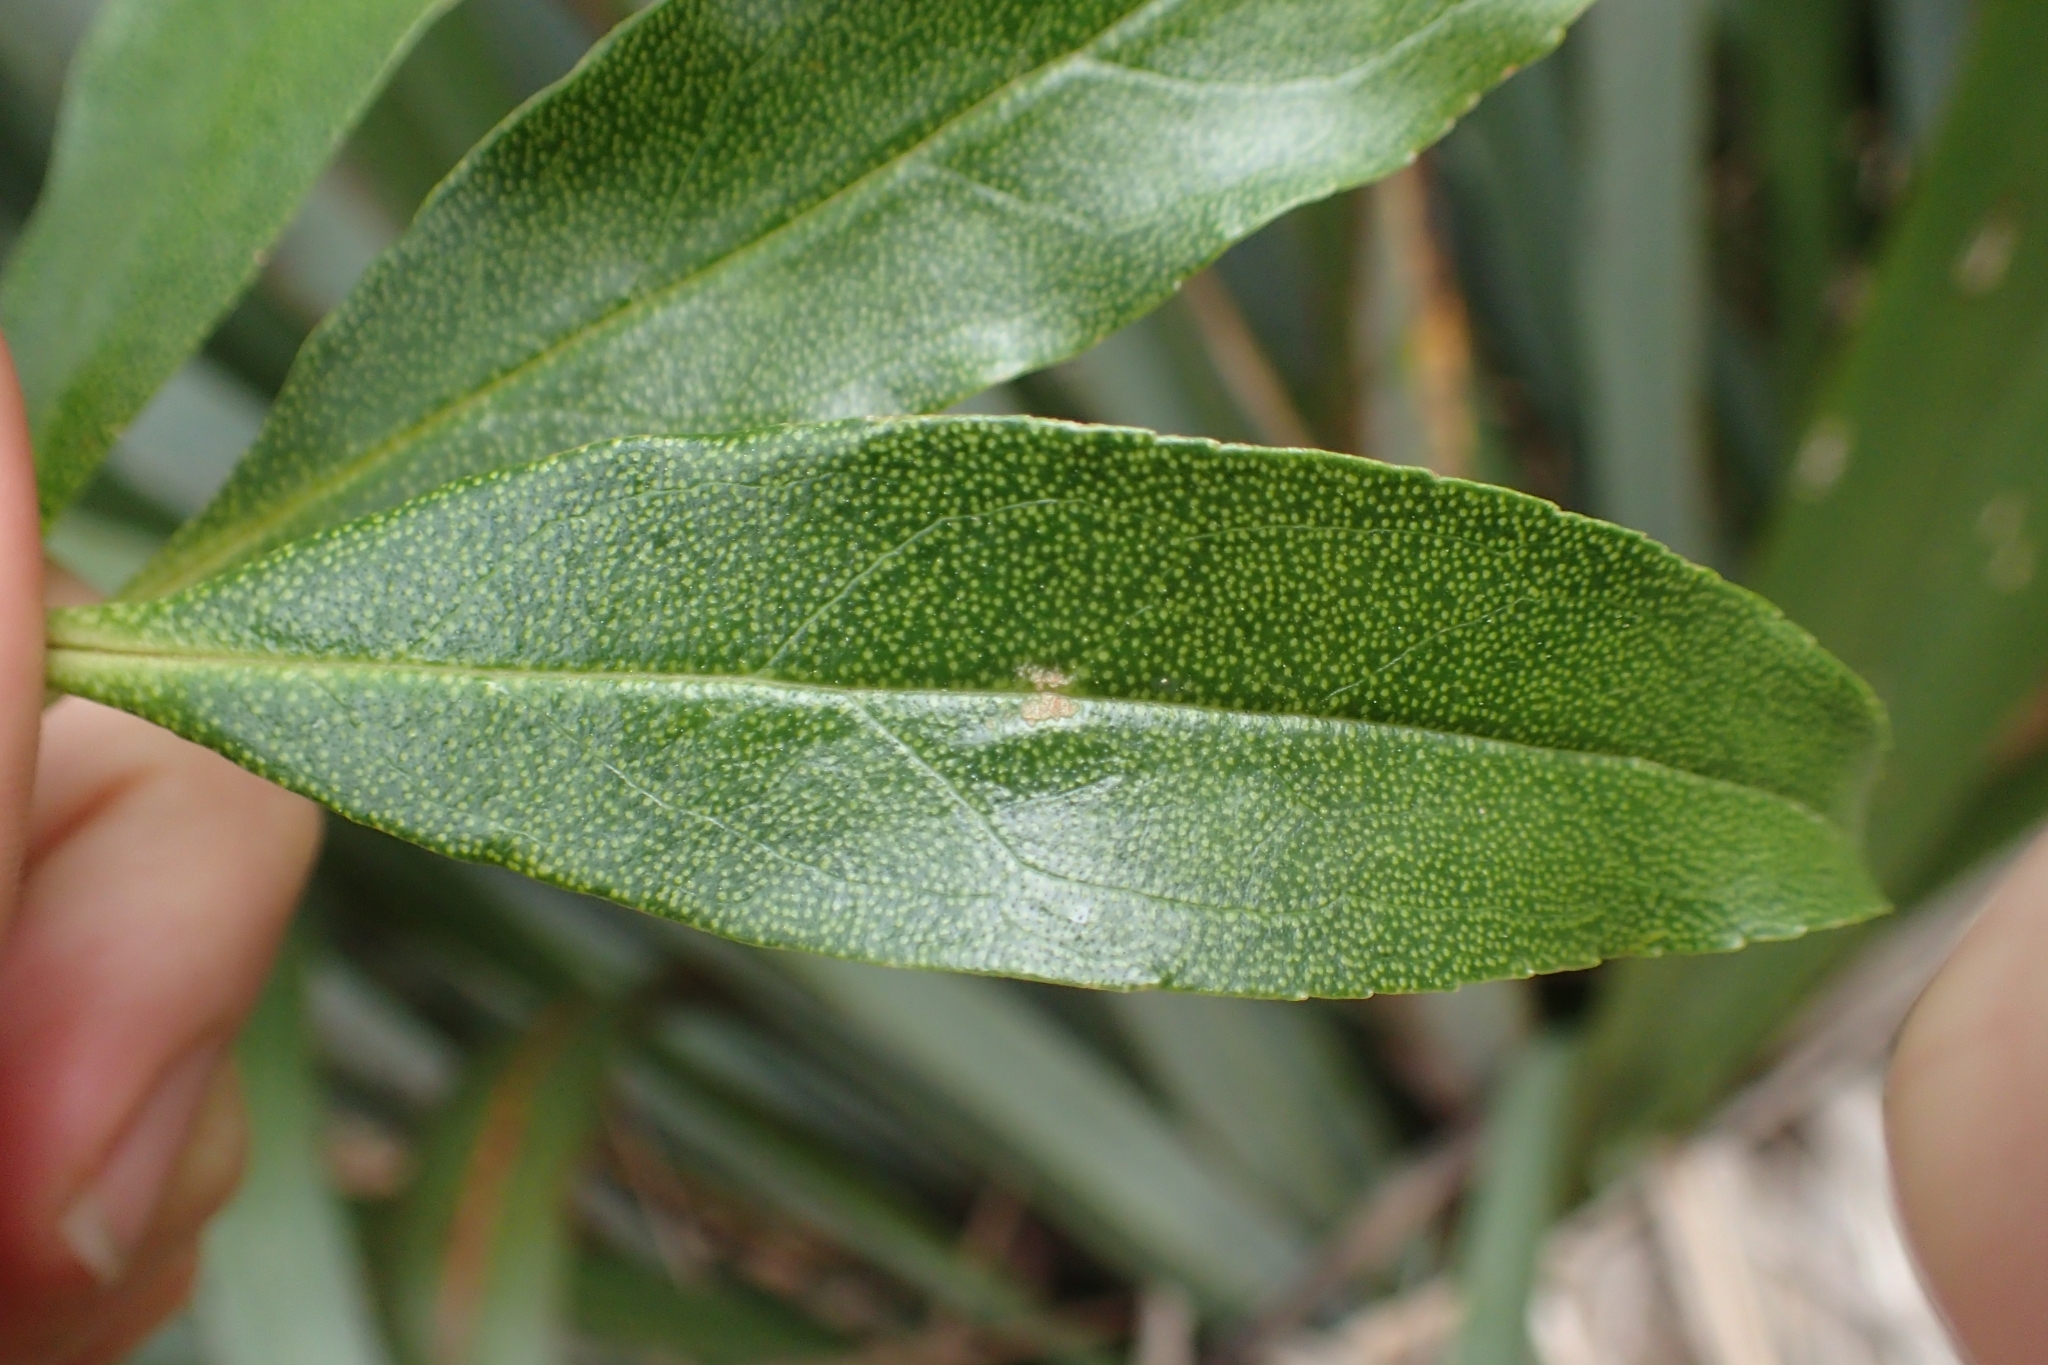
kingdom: Plantae
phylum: Tracheophyta
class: Magnoliopsida
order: Lamiales
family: Scrophulariaceae
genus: Myoporum
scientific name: Myoporum laetum
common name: Ngaio tree
